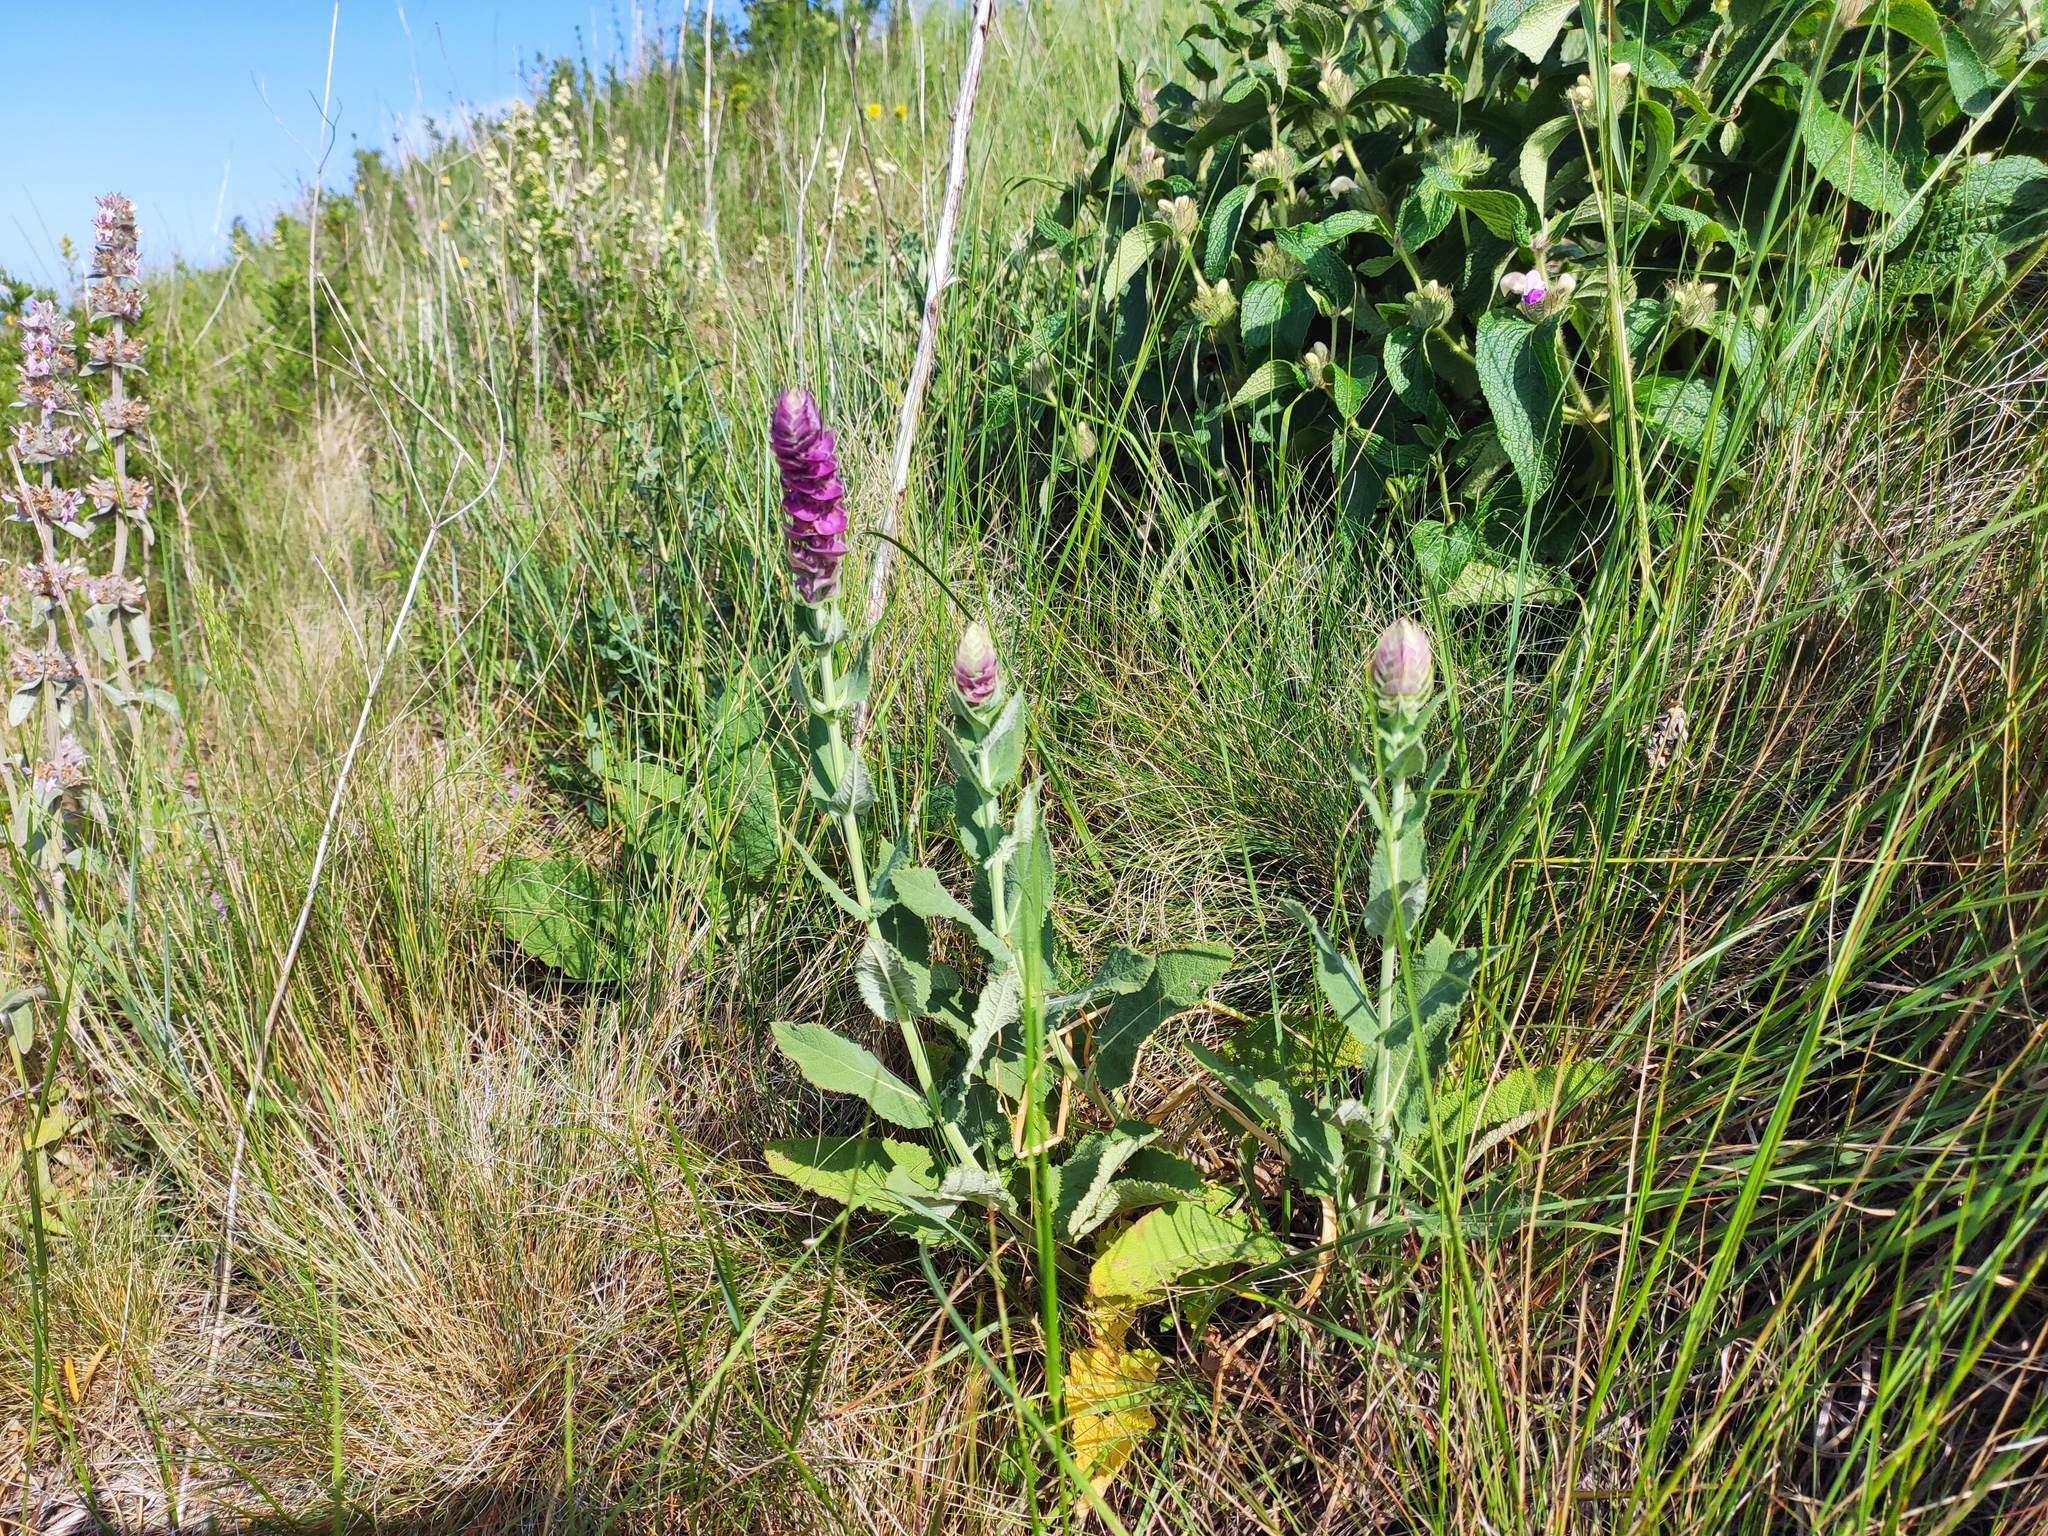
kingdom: Plantae
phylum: Tracheophyta
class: Magnoliopsida
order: Lamiales
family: Lamiaceae
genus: Salvia
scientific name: Salvia nemorosa
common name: Balkan clary
